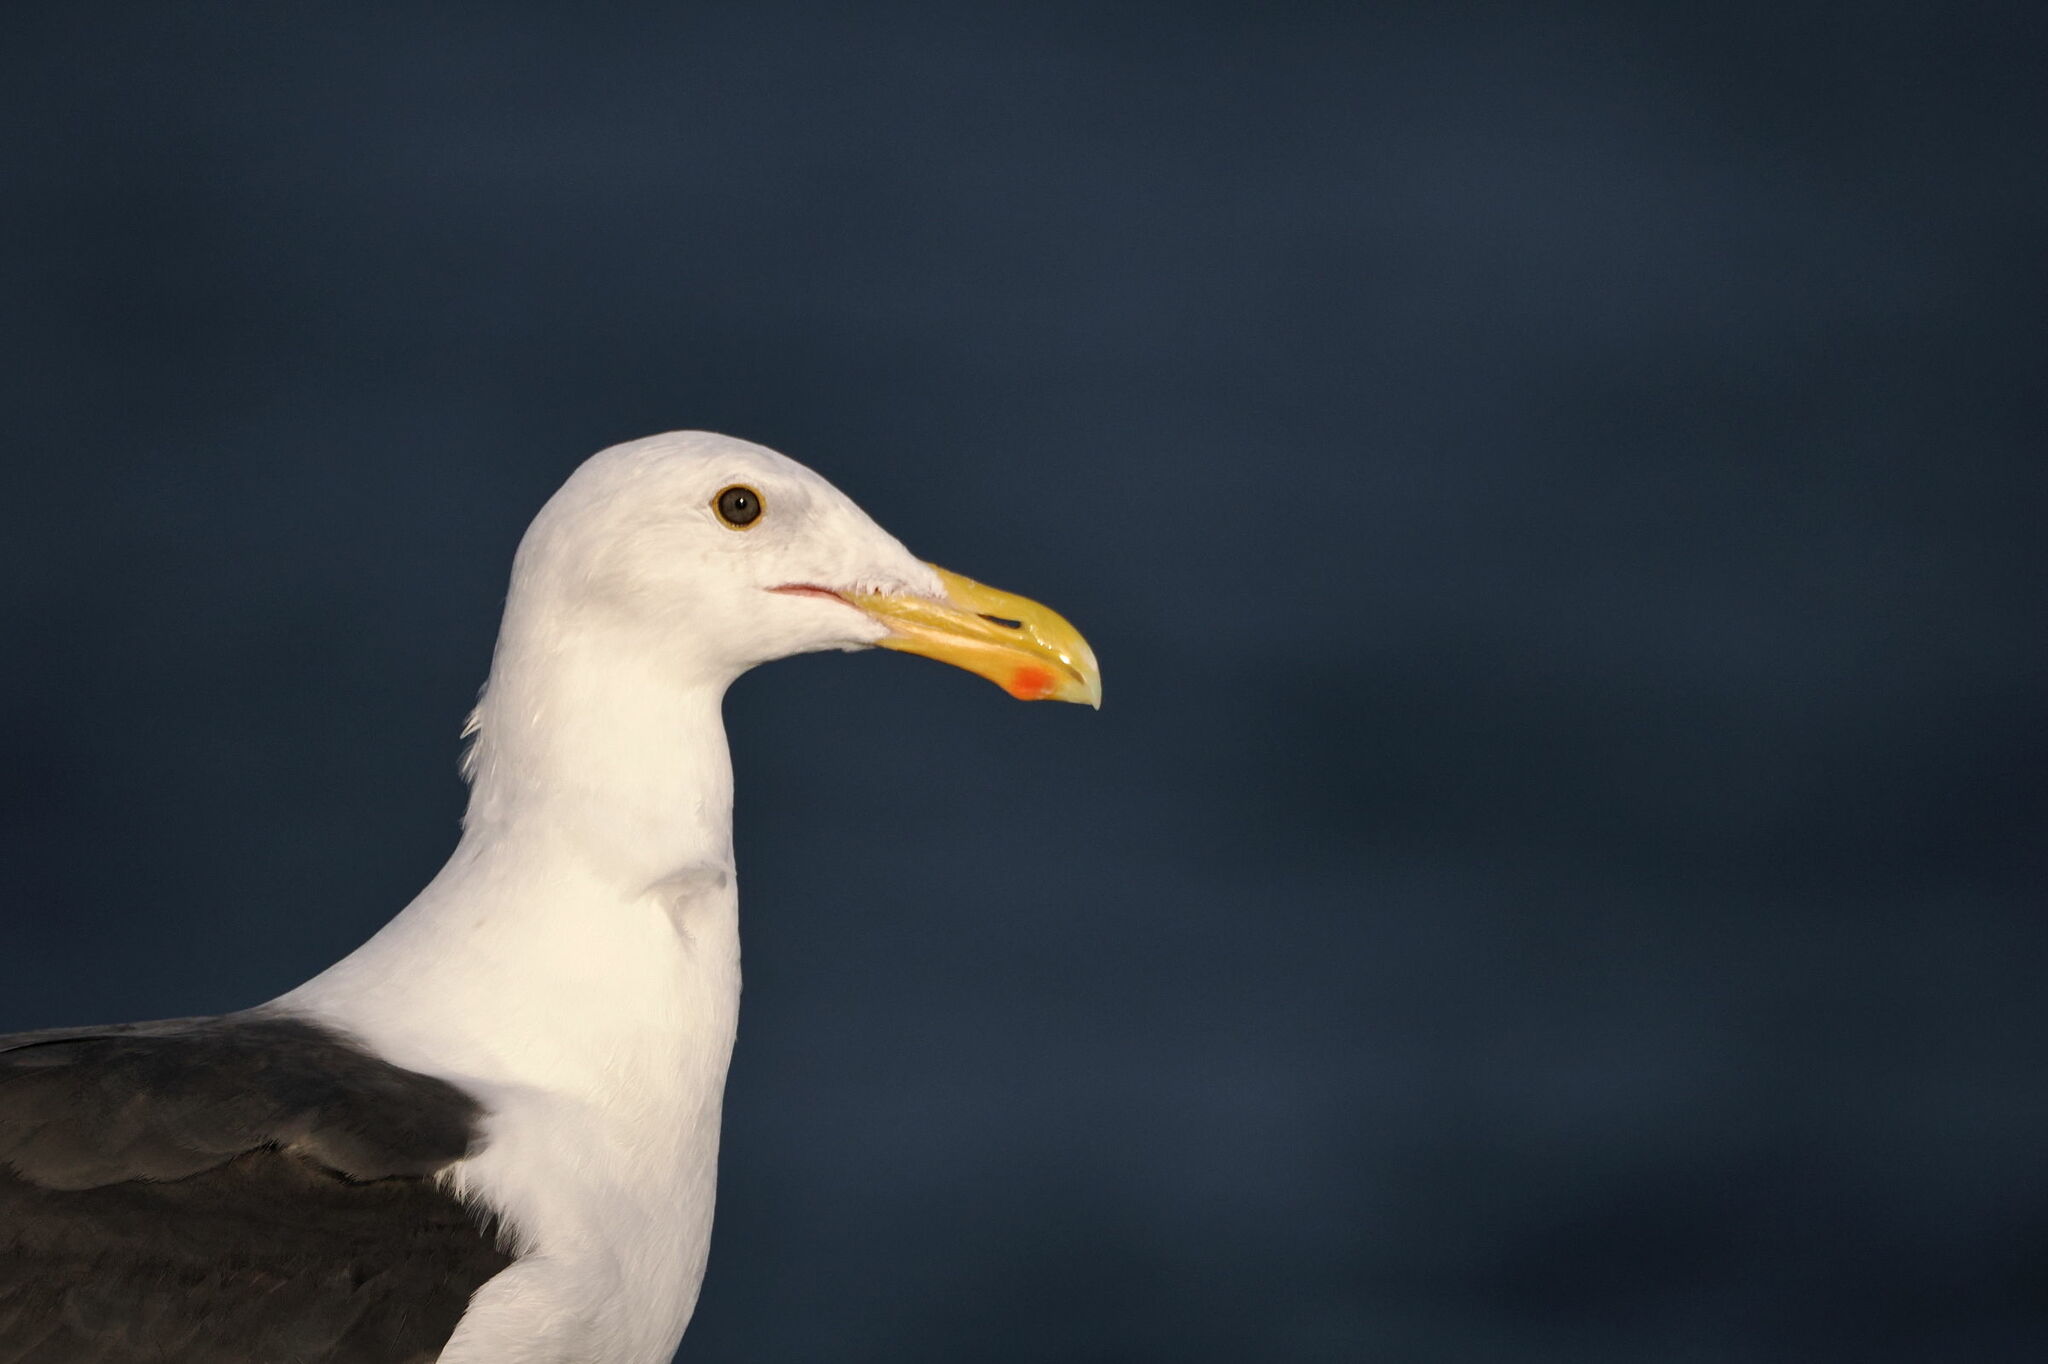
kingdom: Animalia
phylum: Chordata
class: Aves
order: Charadriiformes
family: Laridae
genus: Larus
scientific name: Larus occidentalis
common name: Western gull
